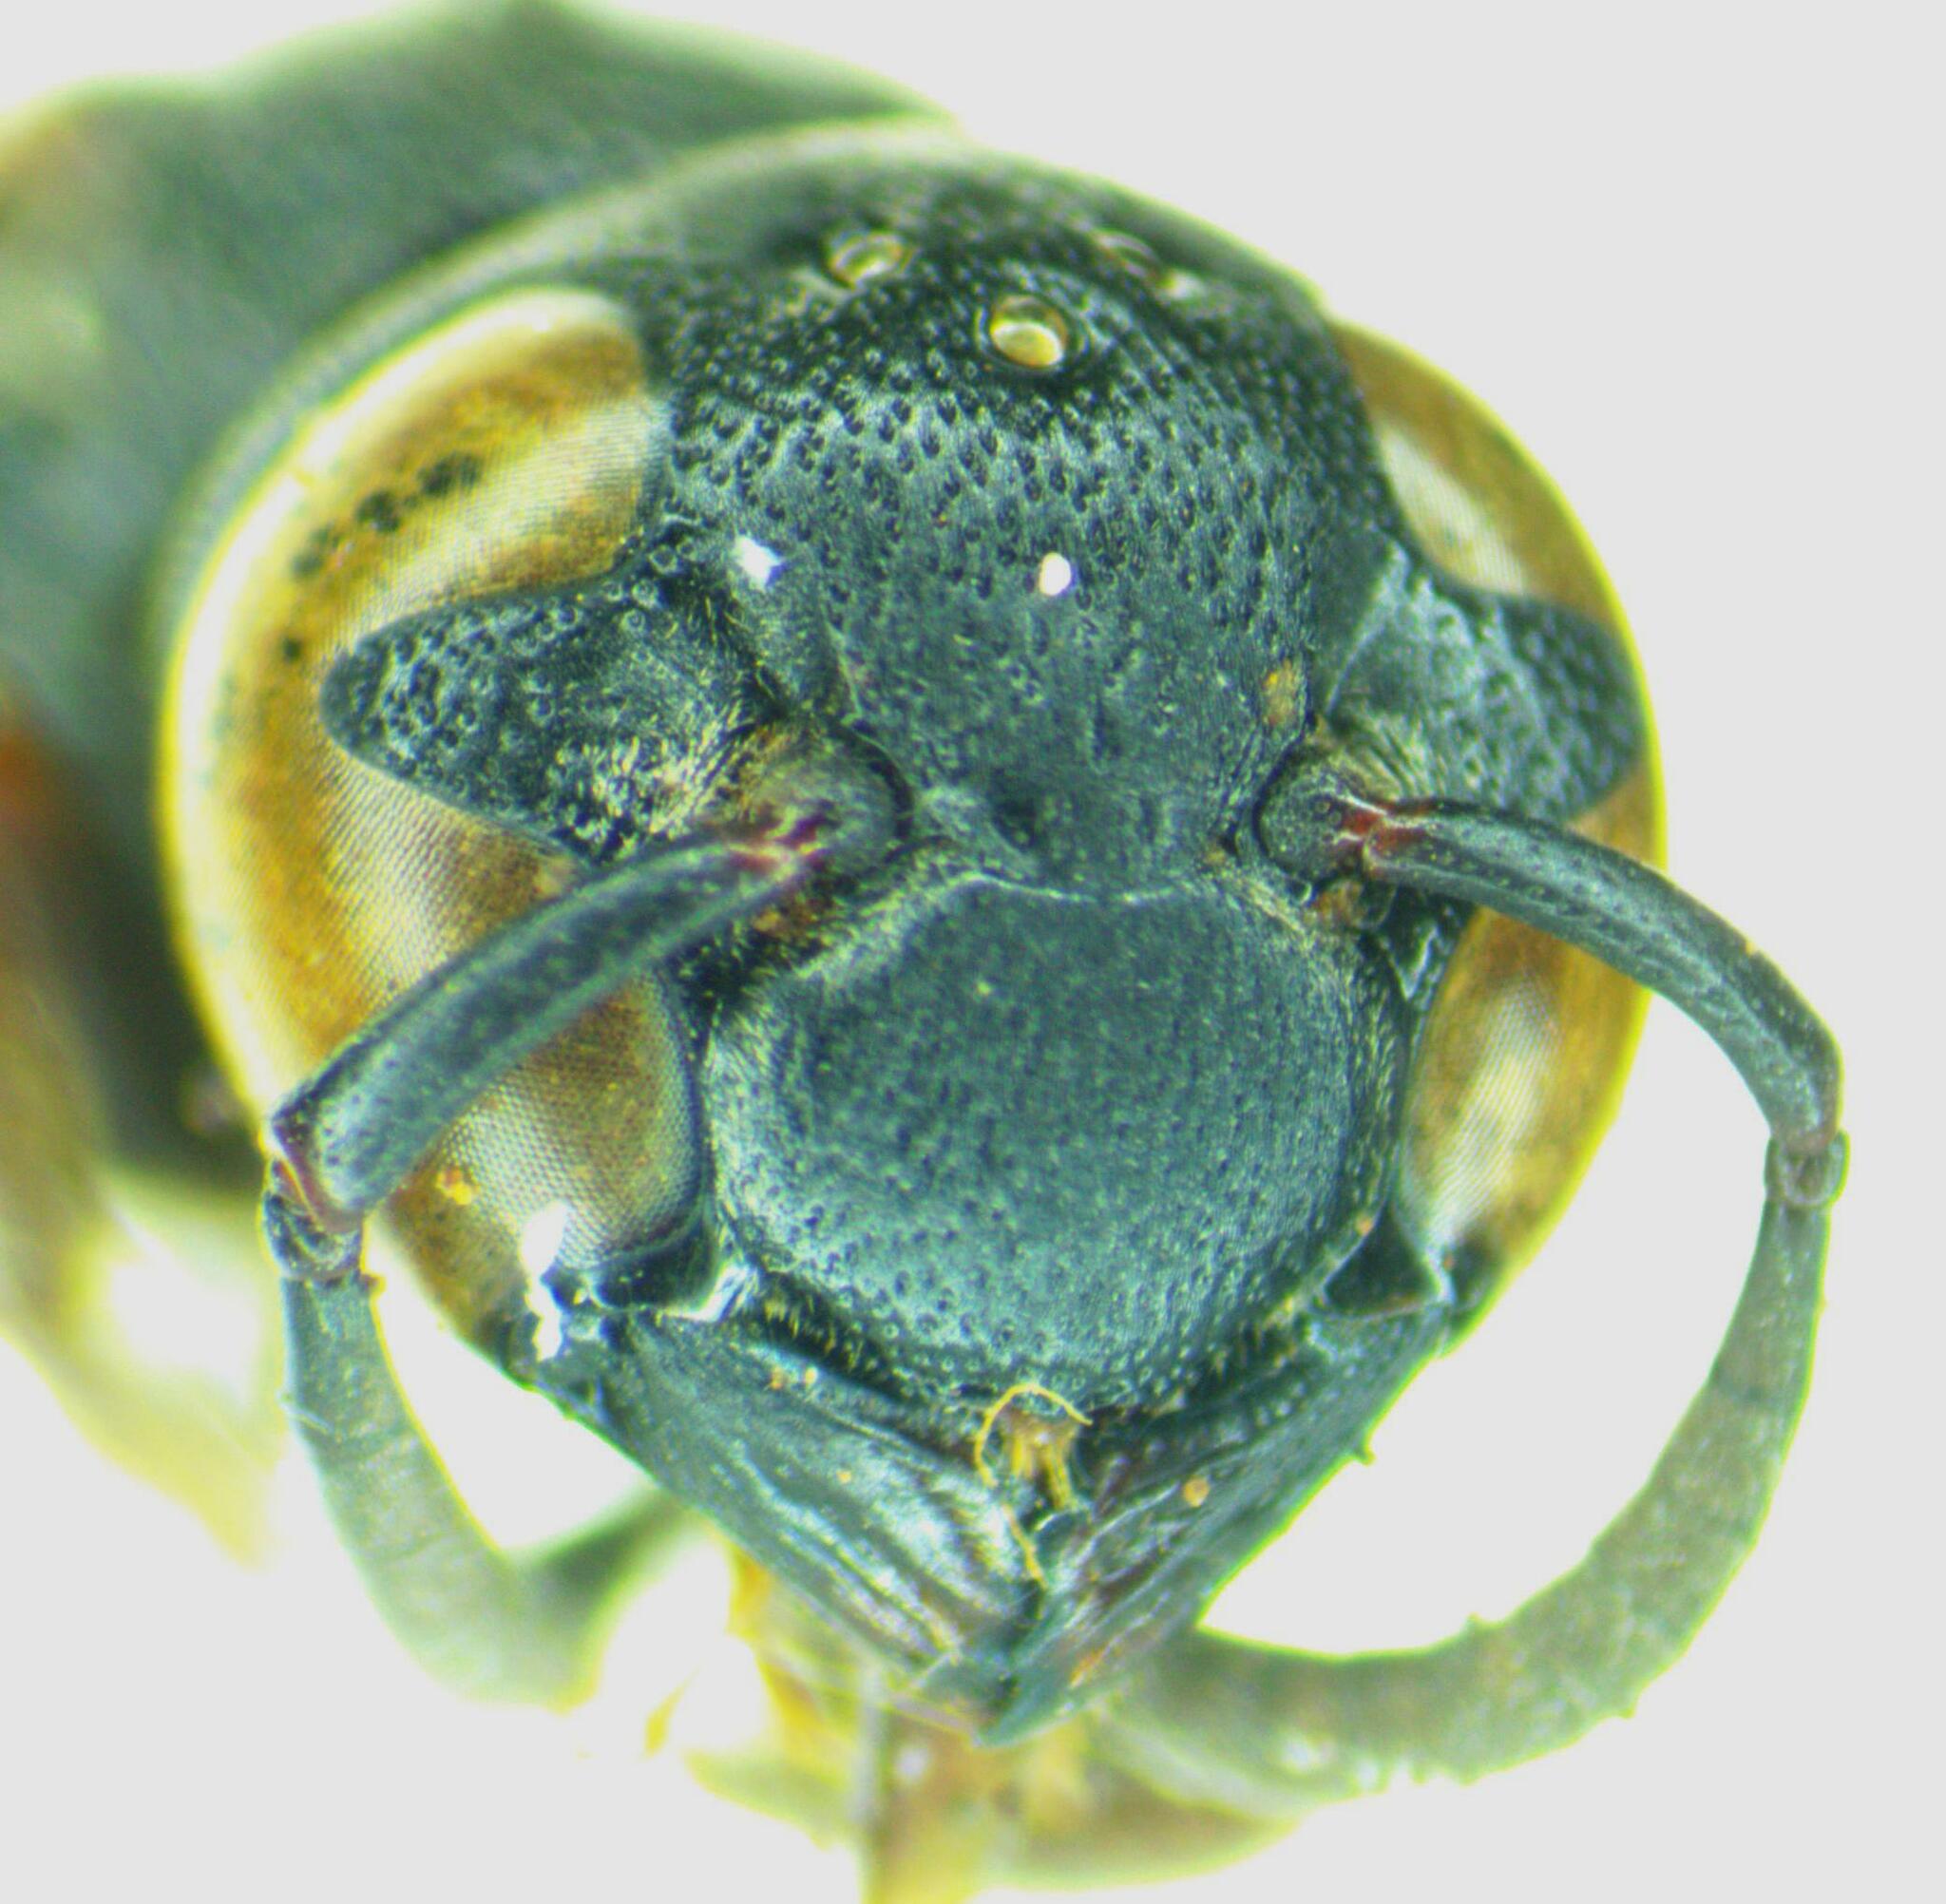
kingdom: Animalia
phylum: Arthropoda
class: Insecta
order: Hymenoptera
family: Eumenidae
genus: Zethus
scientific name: Zethus romandinus
